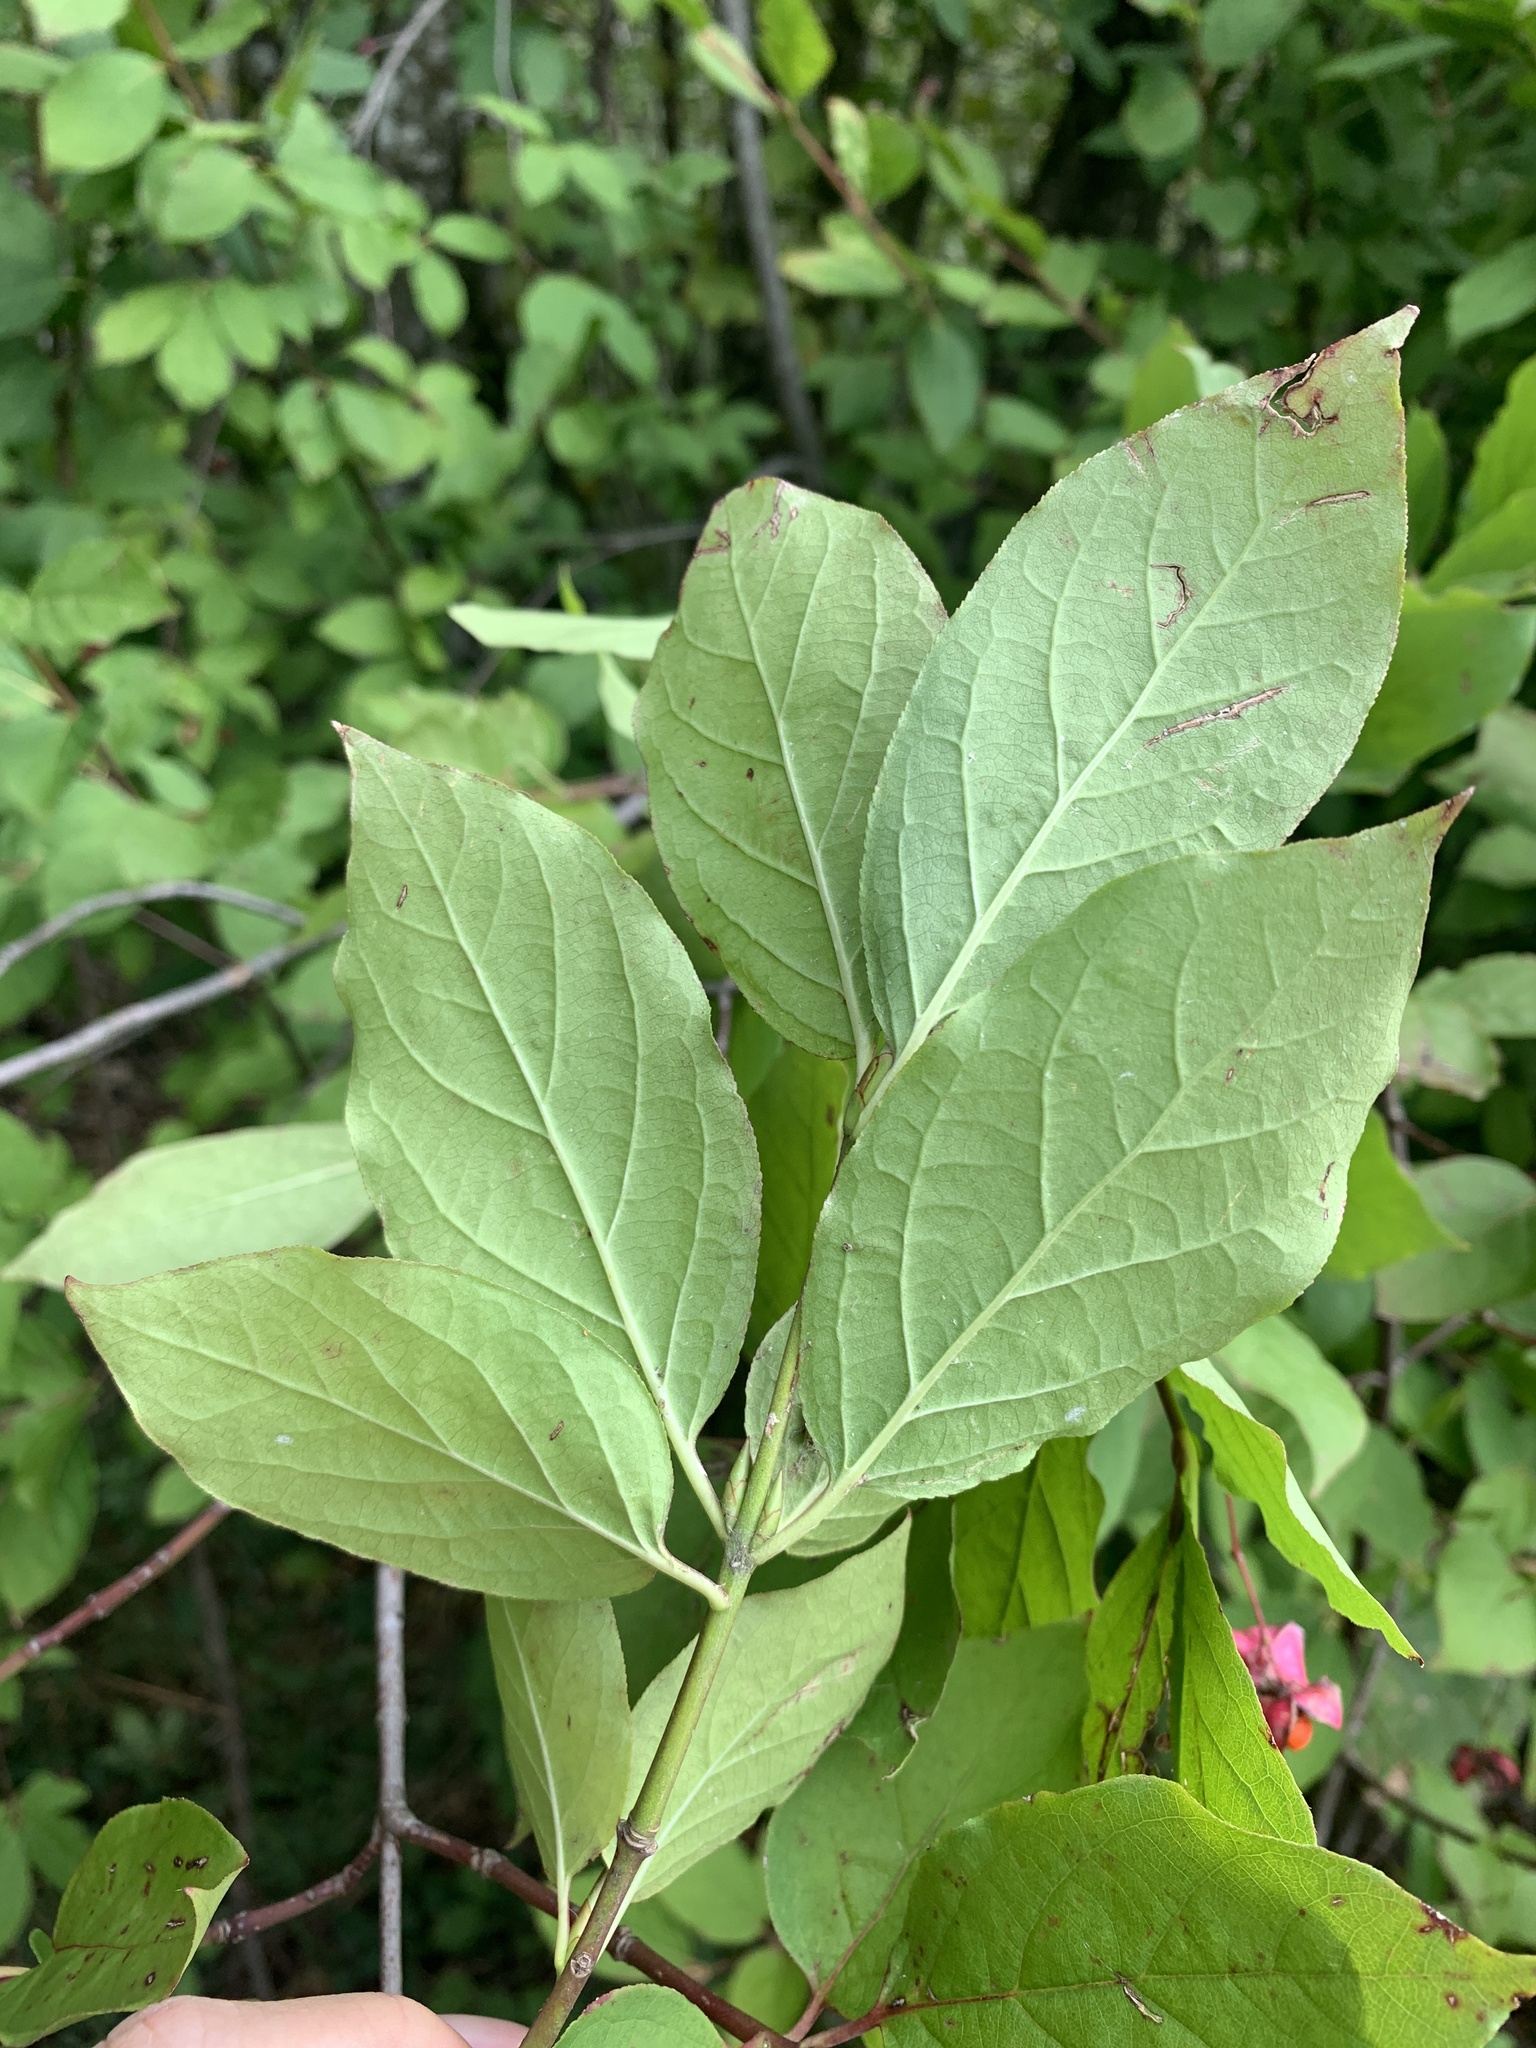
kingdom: Plantae
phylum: Tracheophyta
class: Magnoliopsida
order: Celastrales
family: Celastraceae
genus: Euonymus
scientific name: Euonymus latifolius
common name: Large-leaved spindle
